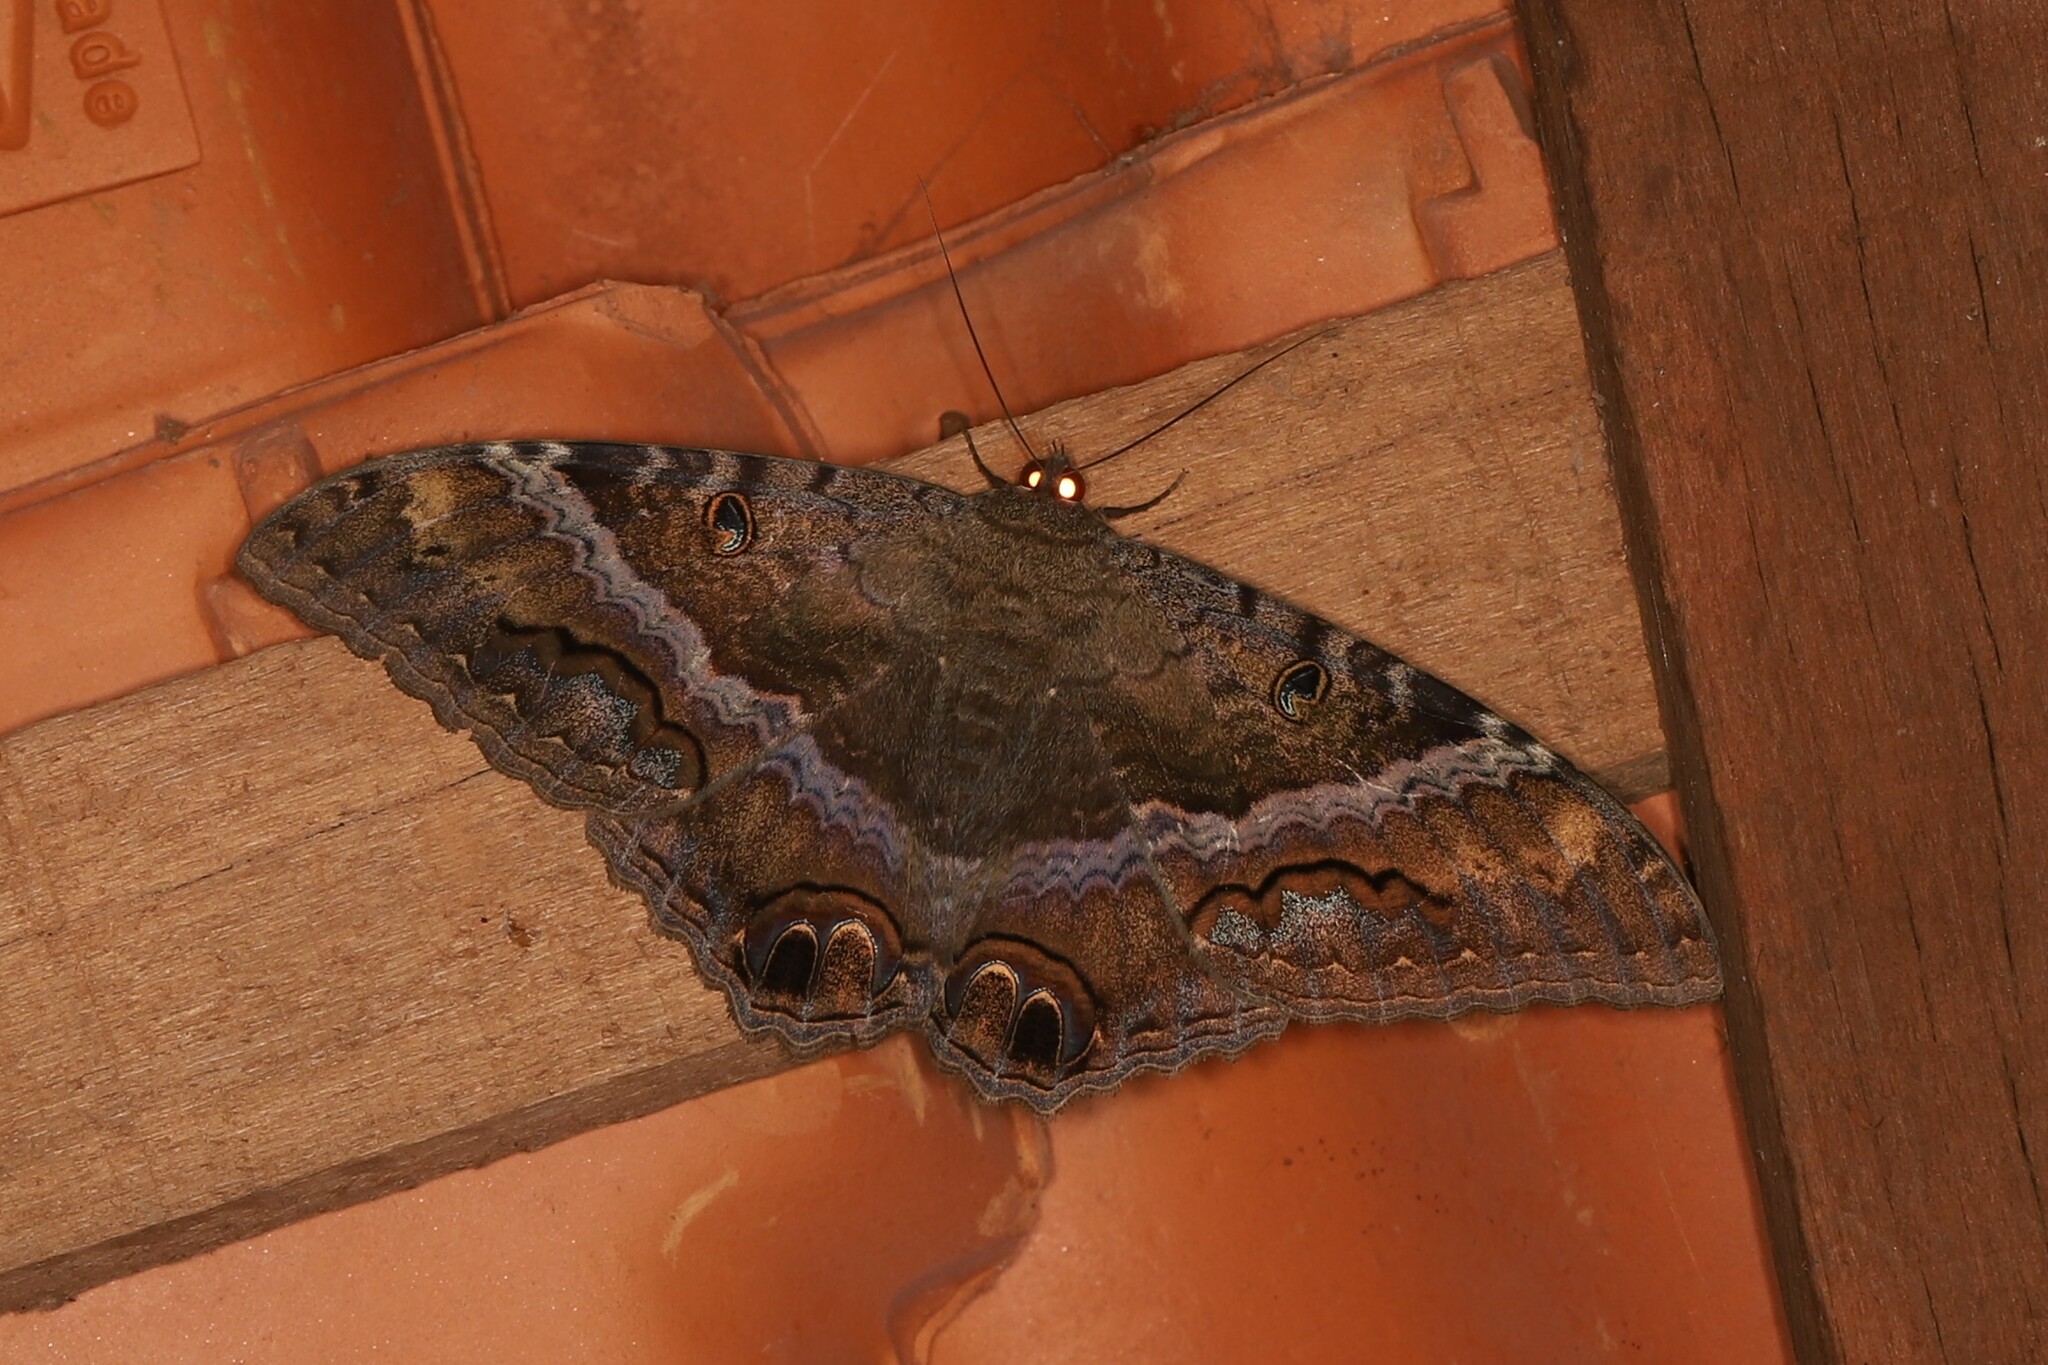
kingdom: Animalia
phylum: Arthropoda
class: Insecta
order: Lepidoptera
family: Erebidae
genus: Ascalapha
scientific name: Ascalapha odorata
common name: Black witch
